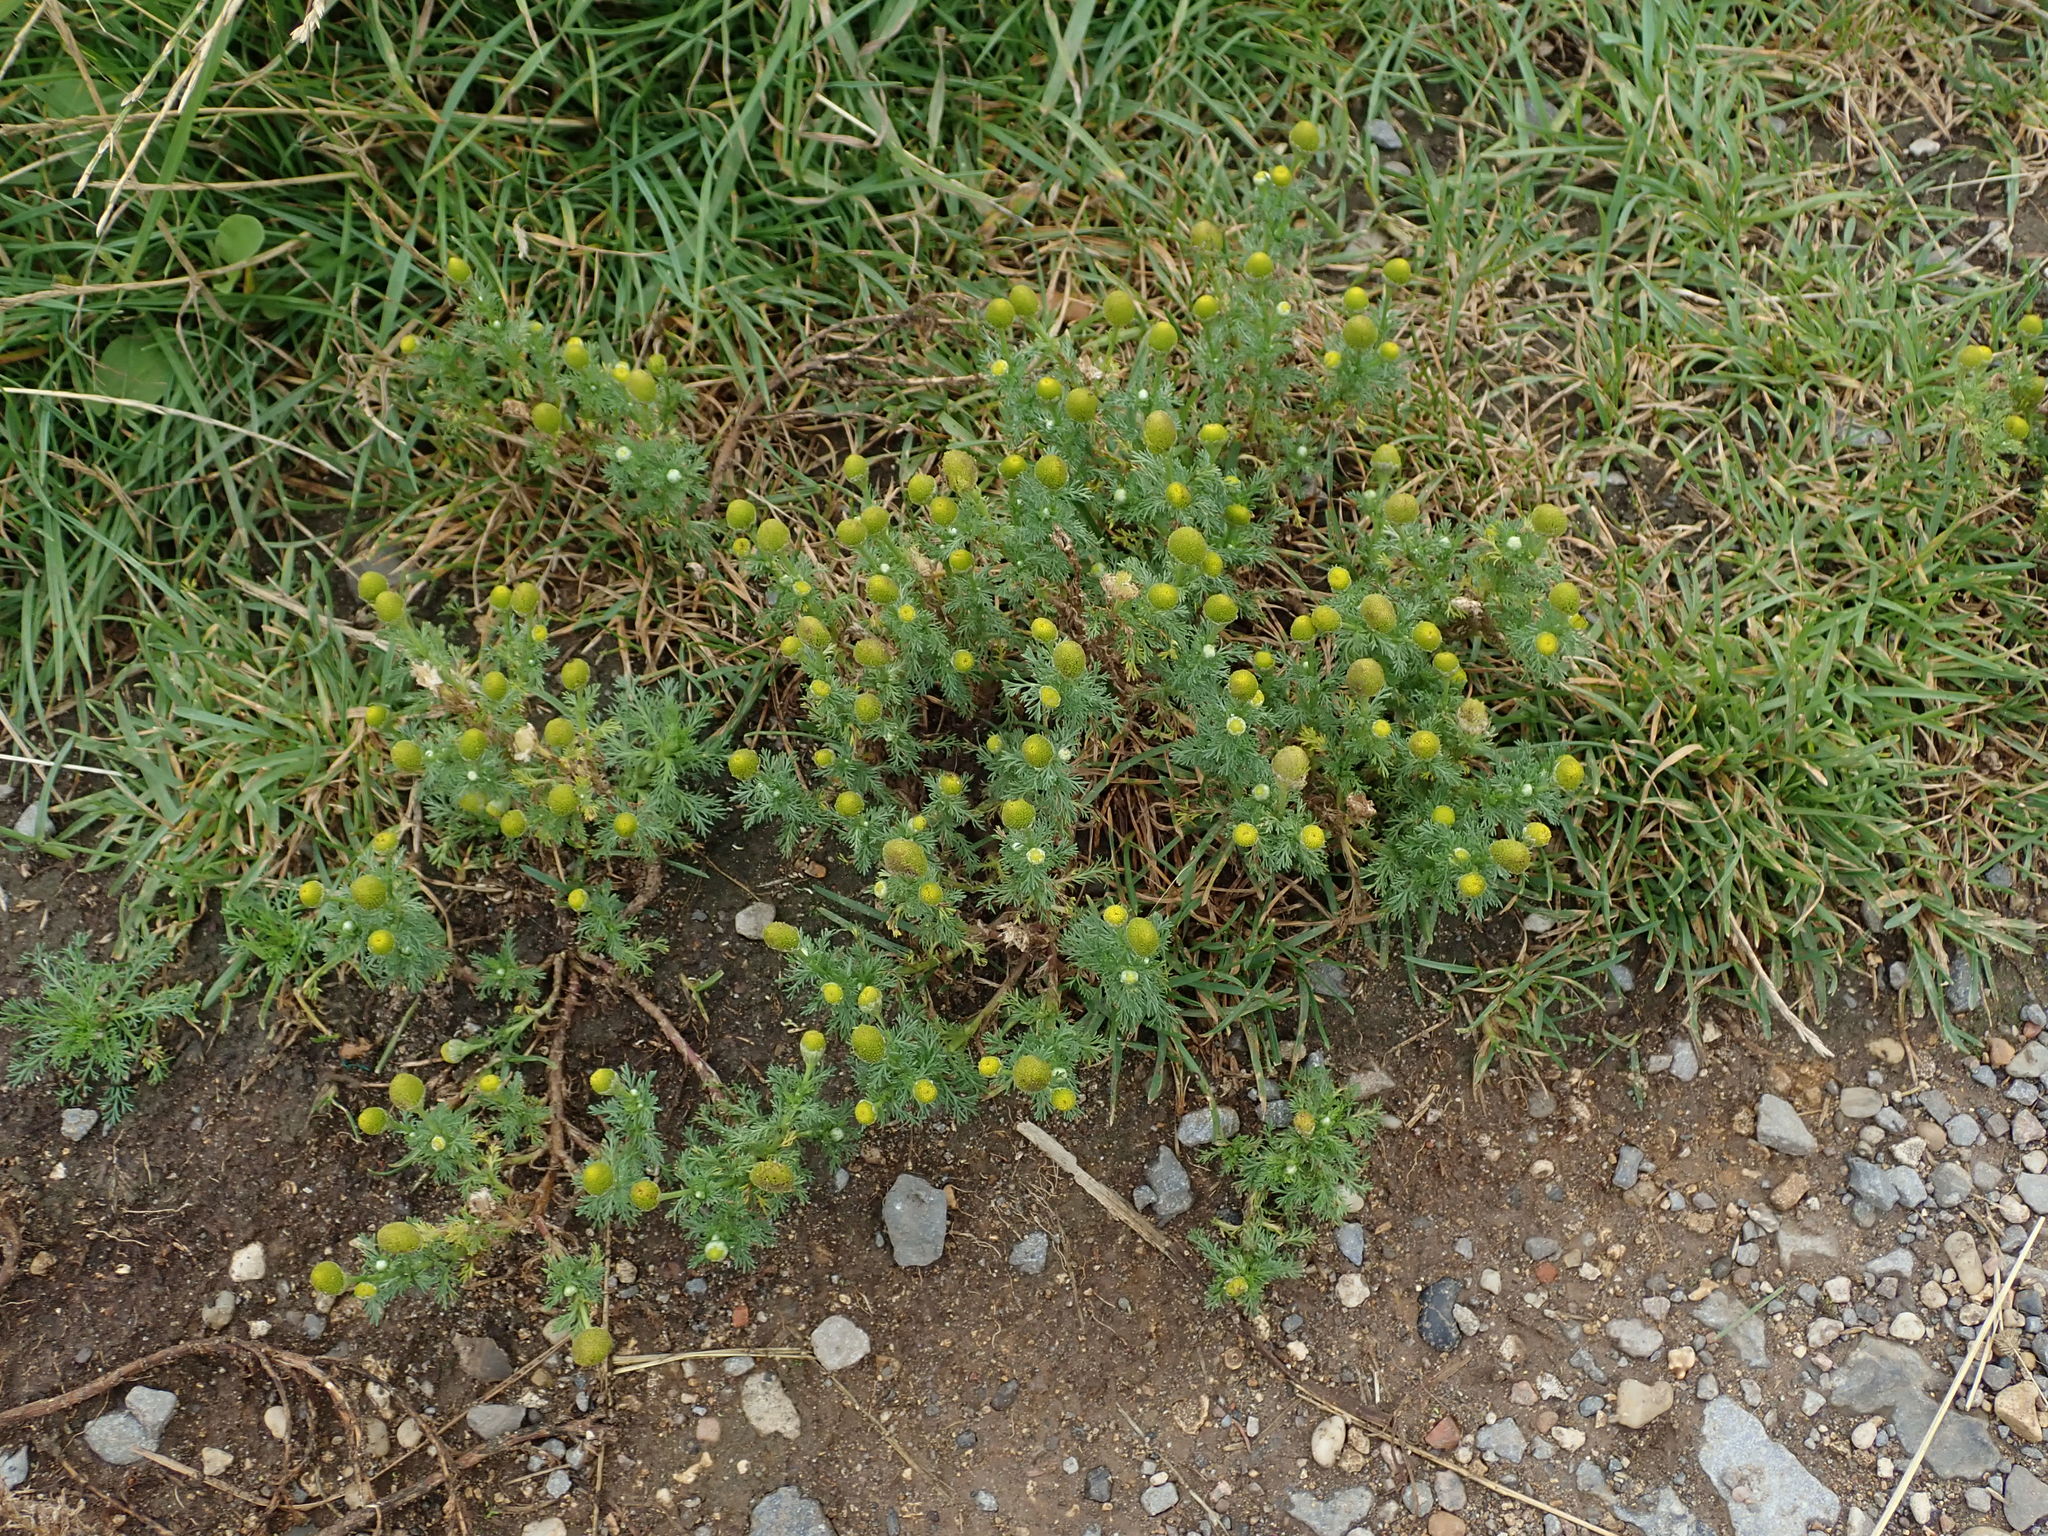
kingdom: Plantae
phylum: Tracheophyta
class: Magnoliopsida
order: Asterales
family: Asteraceae
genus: Matricaria
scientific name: Matricaria discoidea
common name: Disc mayweed
